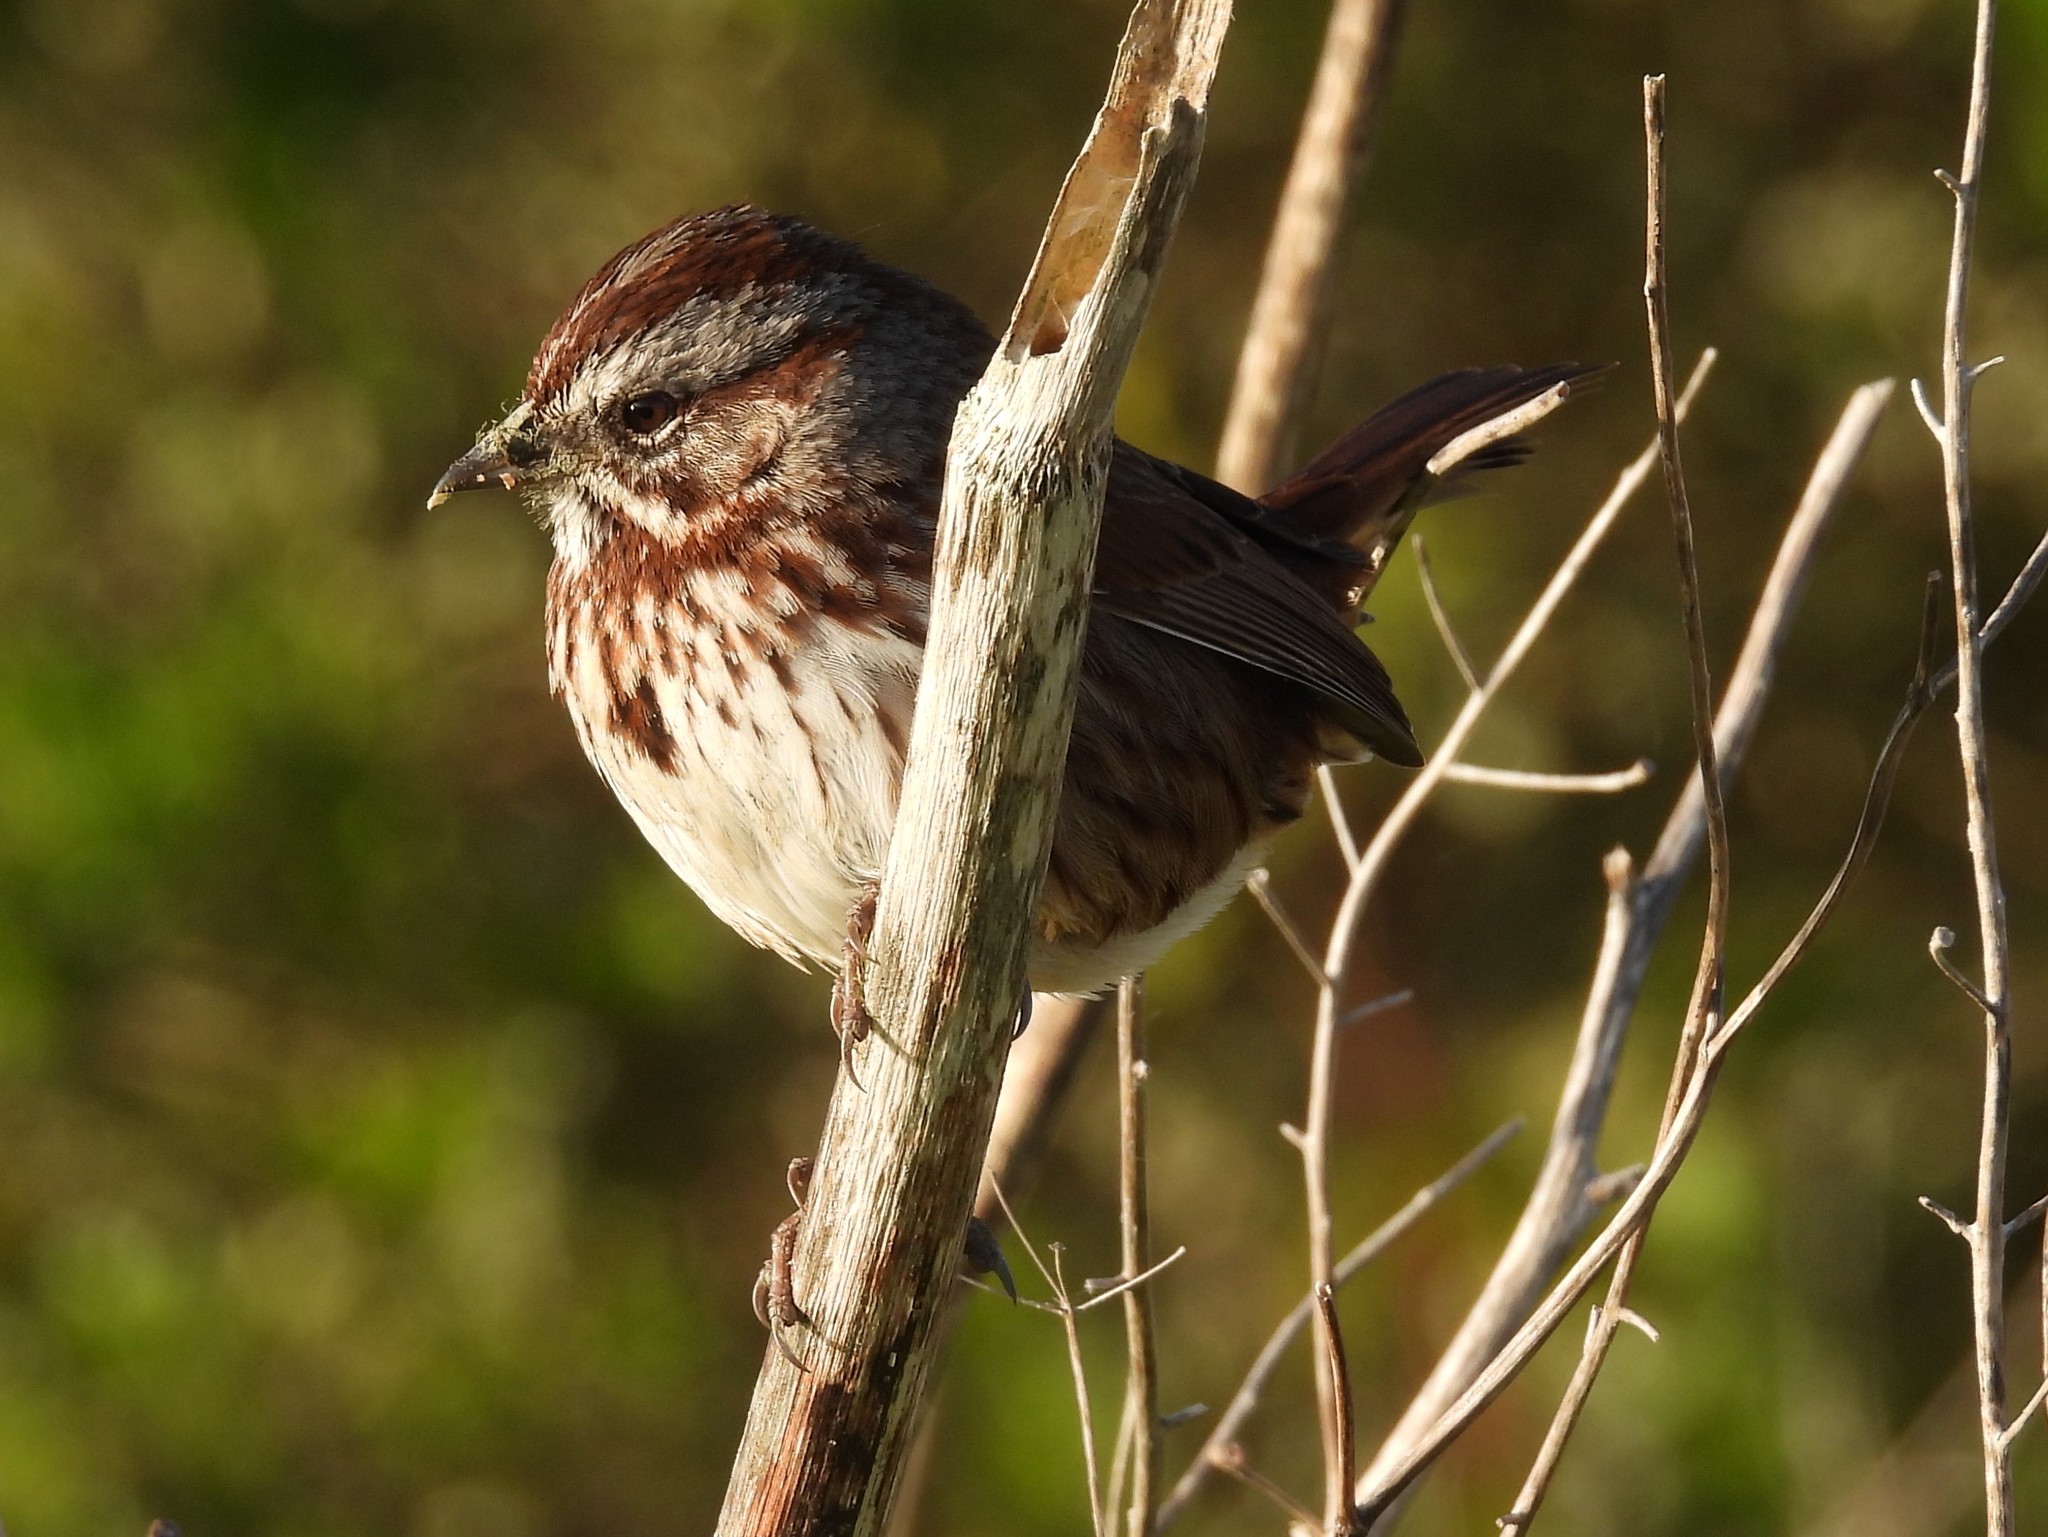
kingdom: Animalia
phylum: Chordata
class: Aves
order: Passeriformes
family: Passerellidae
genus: Melospiza
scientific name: Melospiza melodia
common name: Song sparrow
